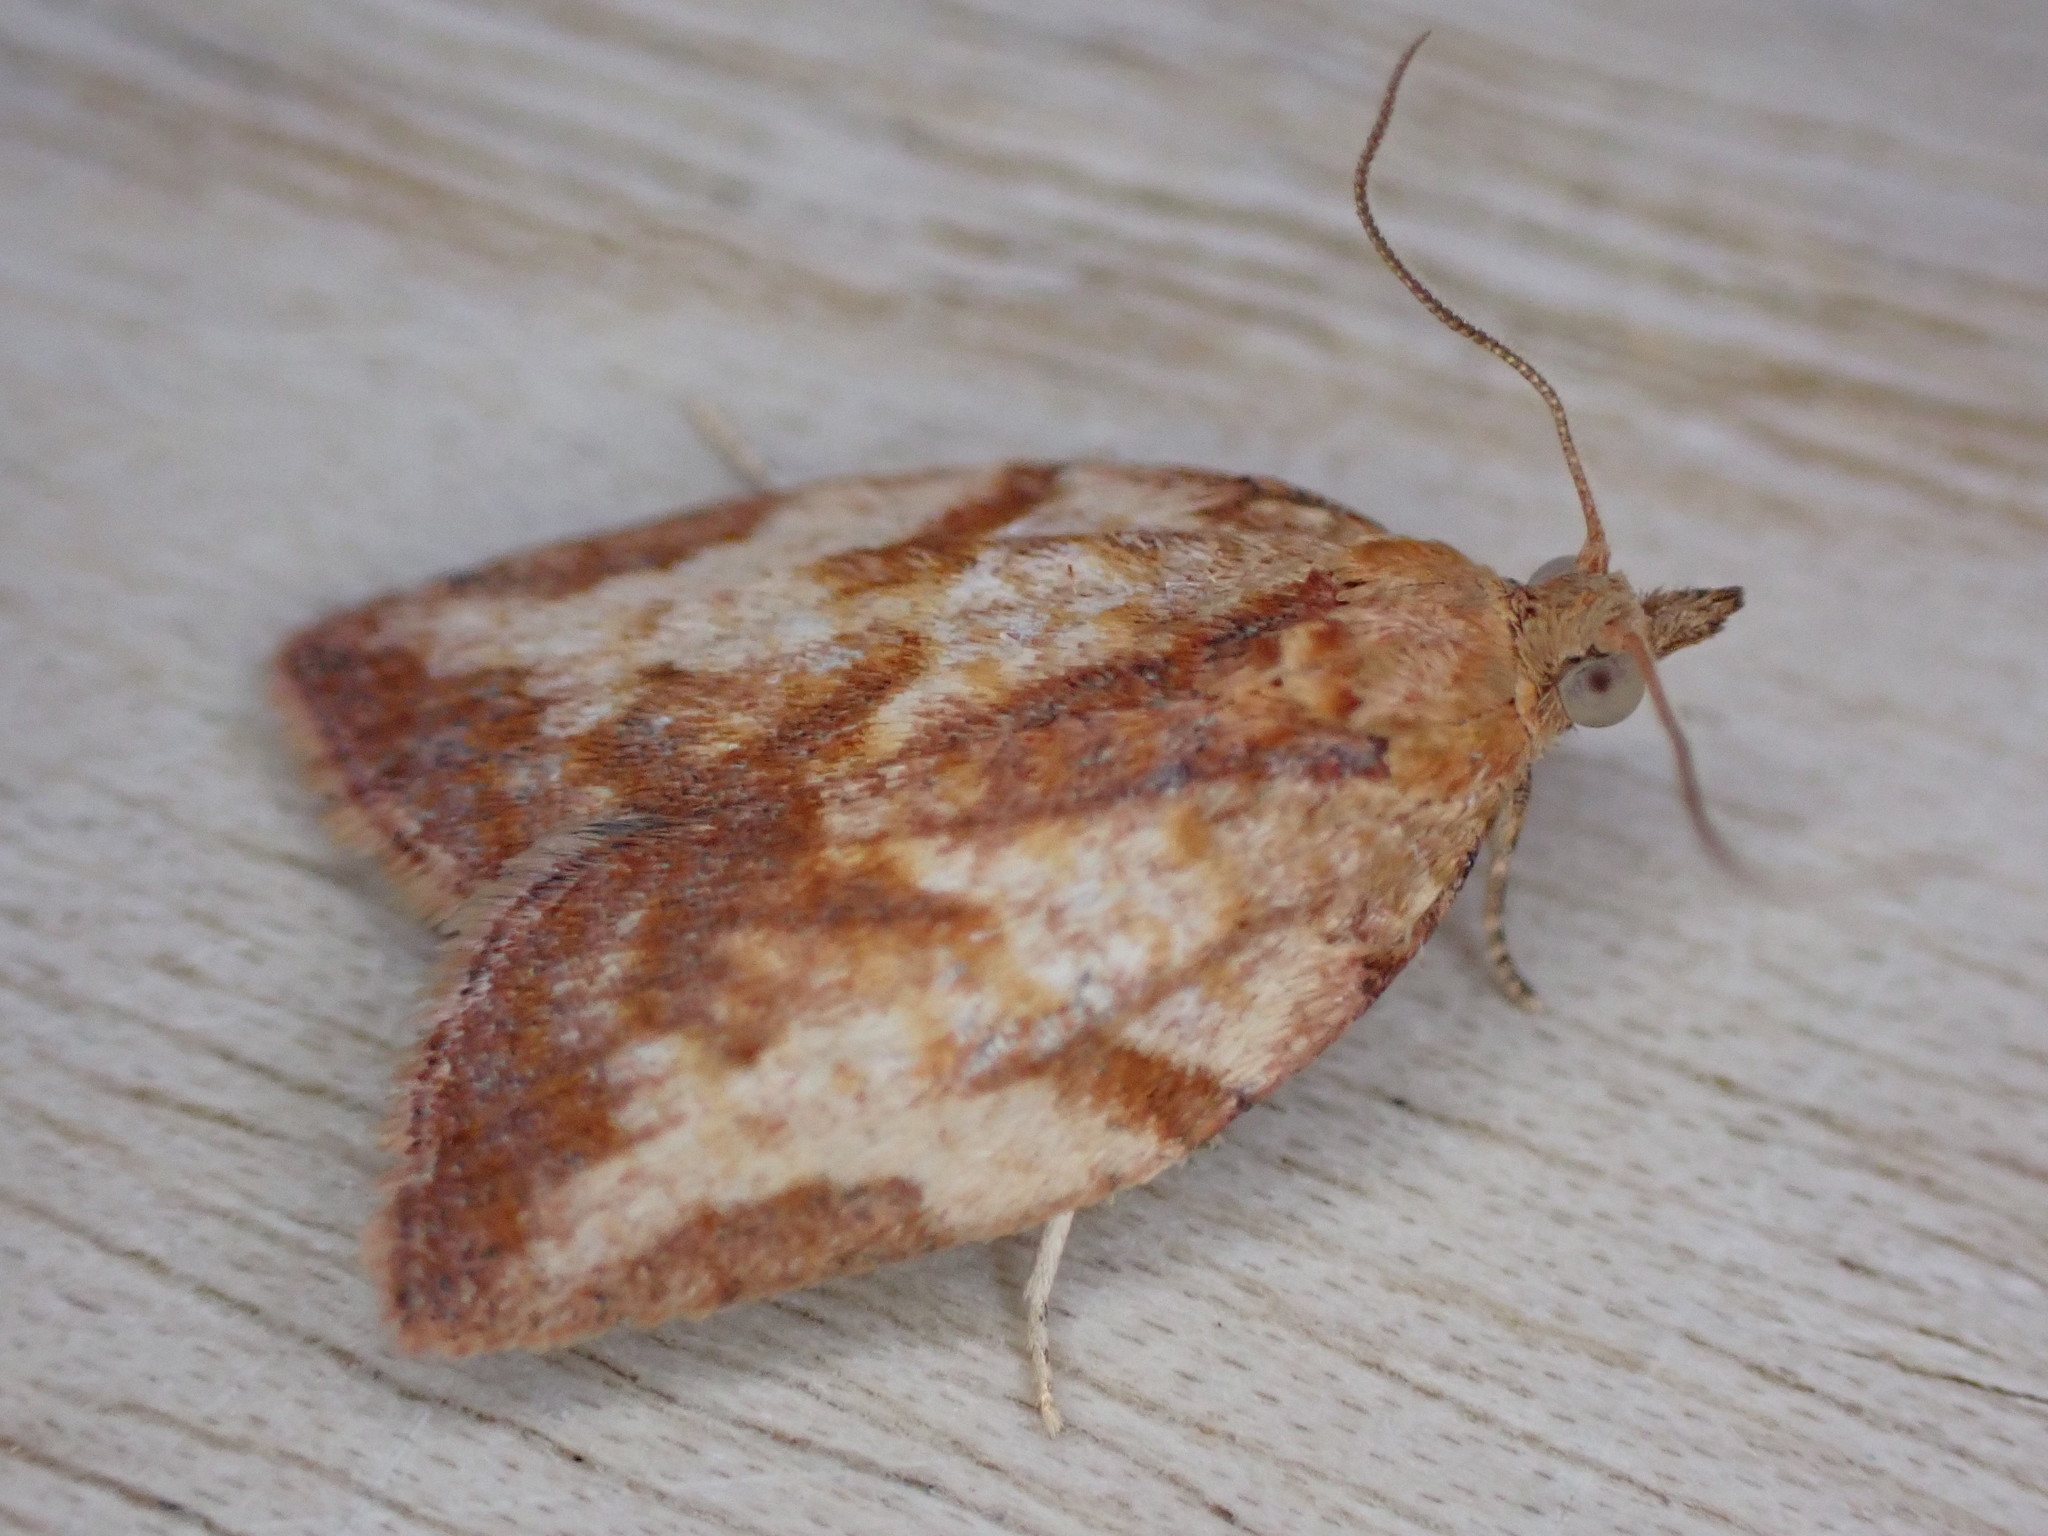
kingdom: Animalia
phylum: Arthropoda
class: Insecta
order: Lepidoptera
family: Tortricidae
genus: Epiphyas
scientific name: Epiphyas postvittana
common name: Light brown apple moth
